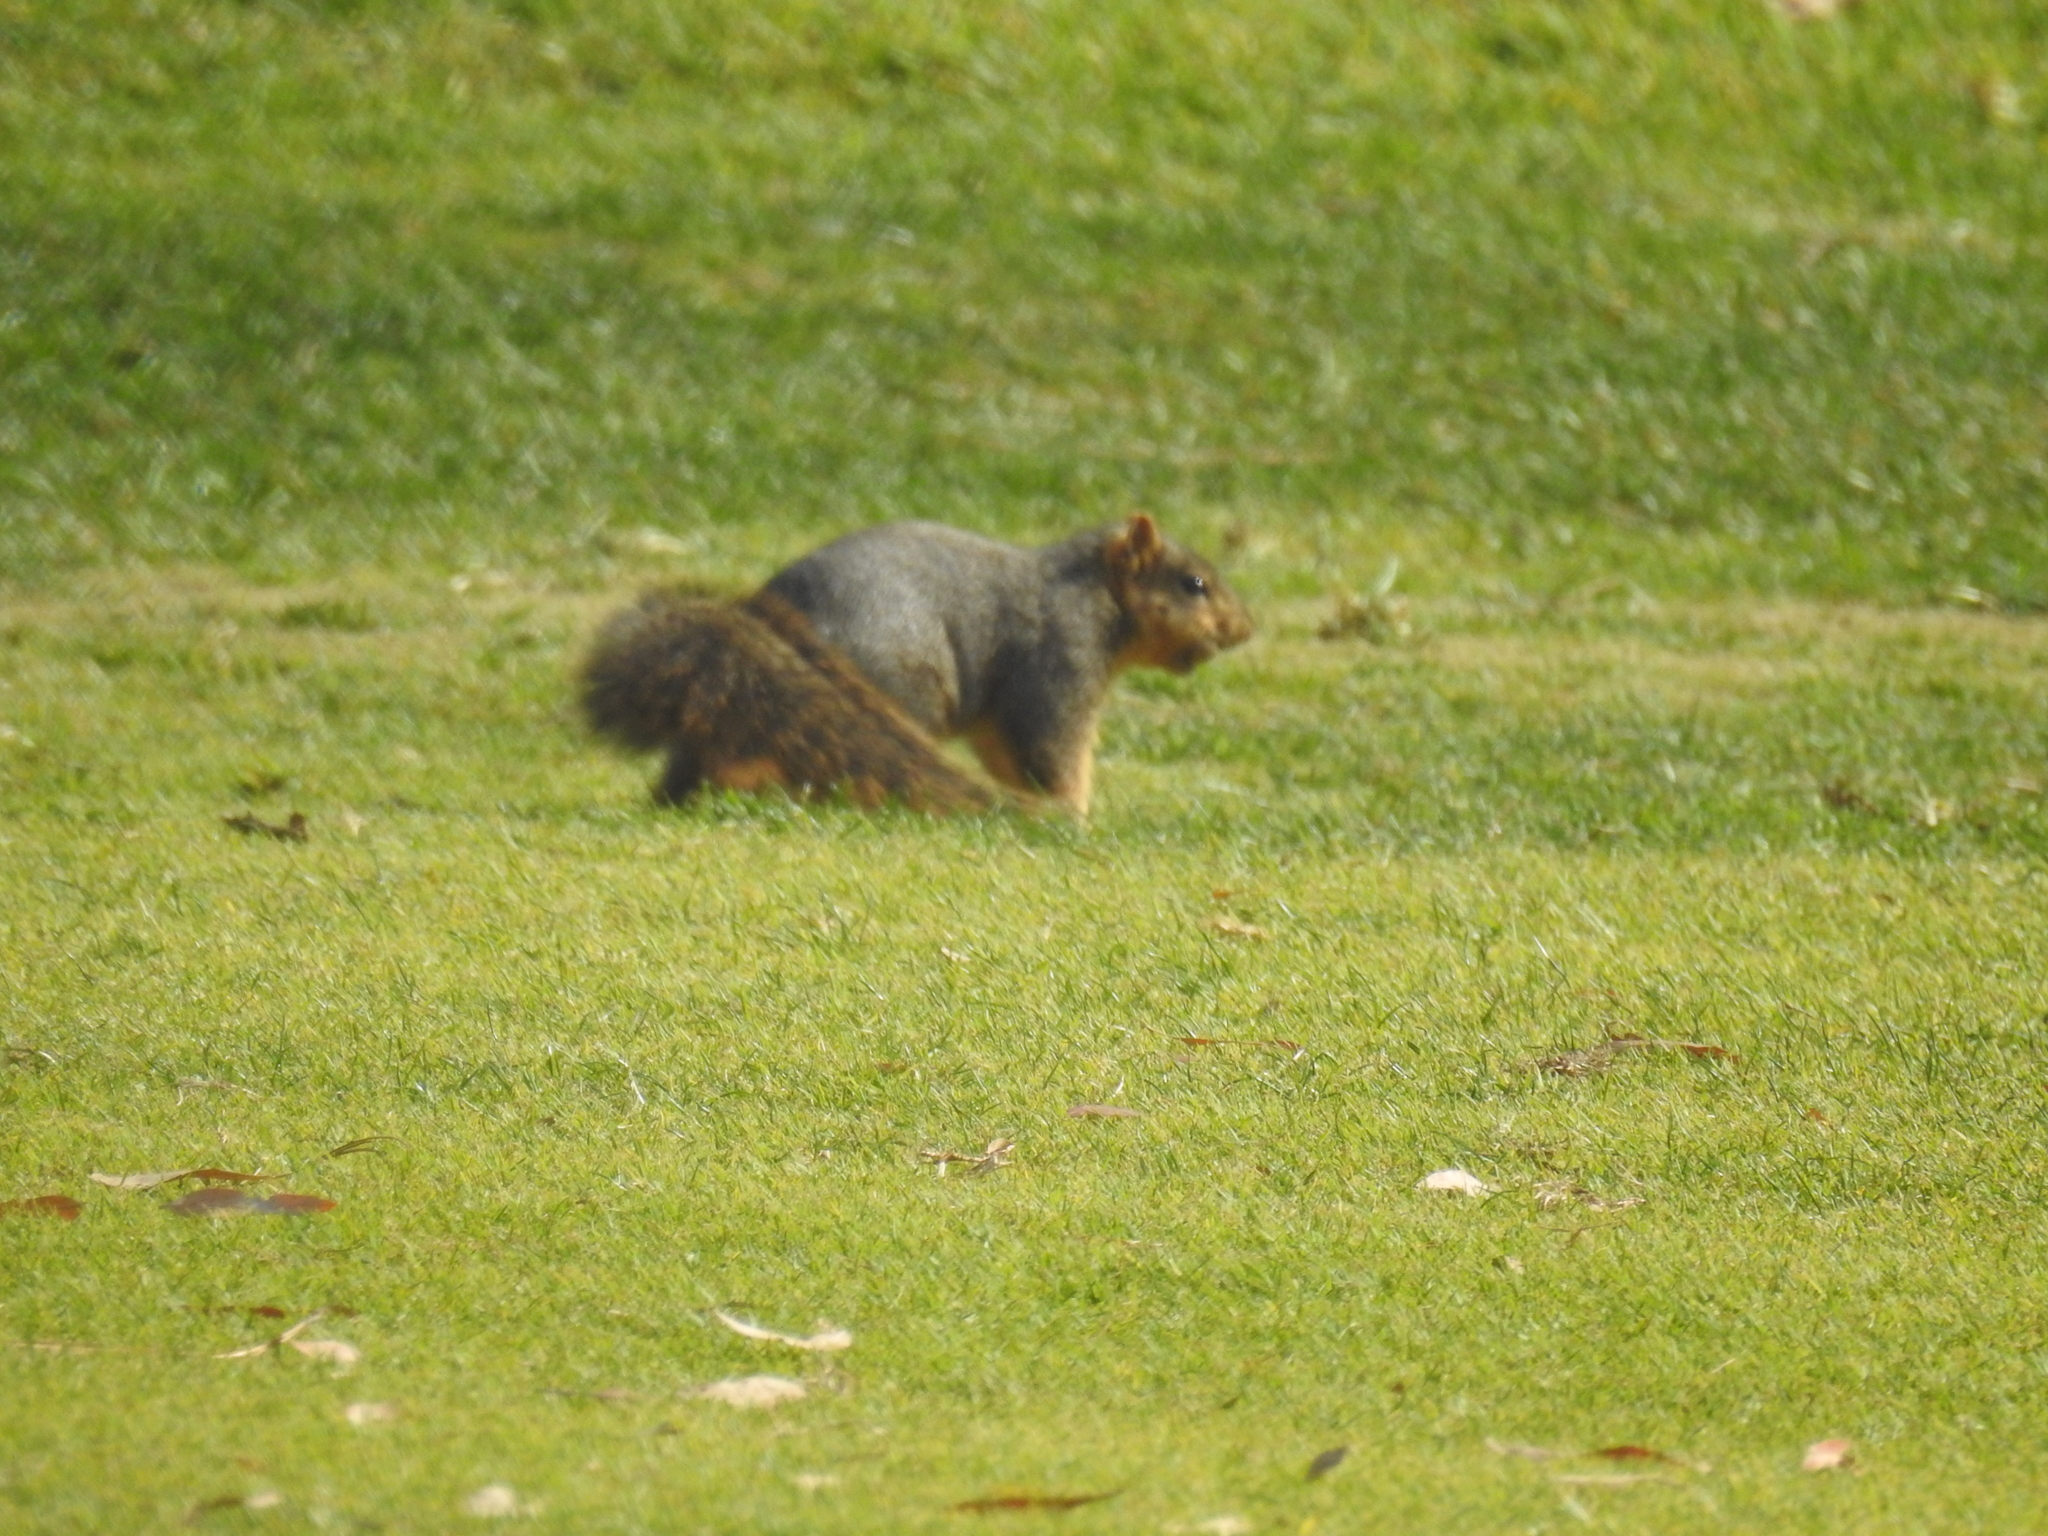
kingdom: Animalia
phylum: Chordata
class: Mammalia
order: Rodentia
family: Sciuridae
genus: Sciurus
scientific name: Sciurus niger
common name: Fox squirrel
